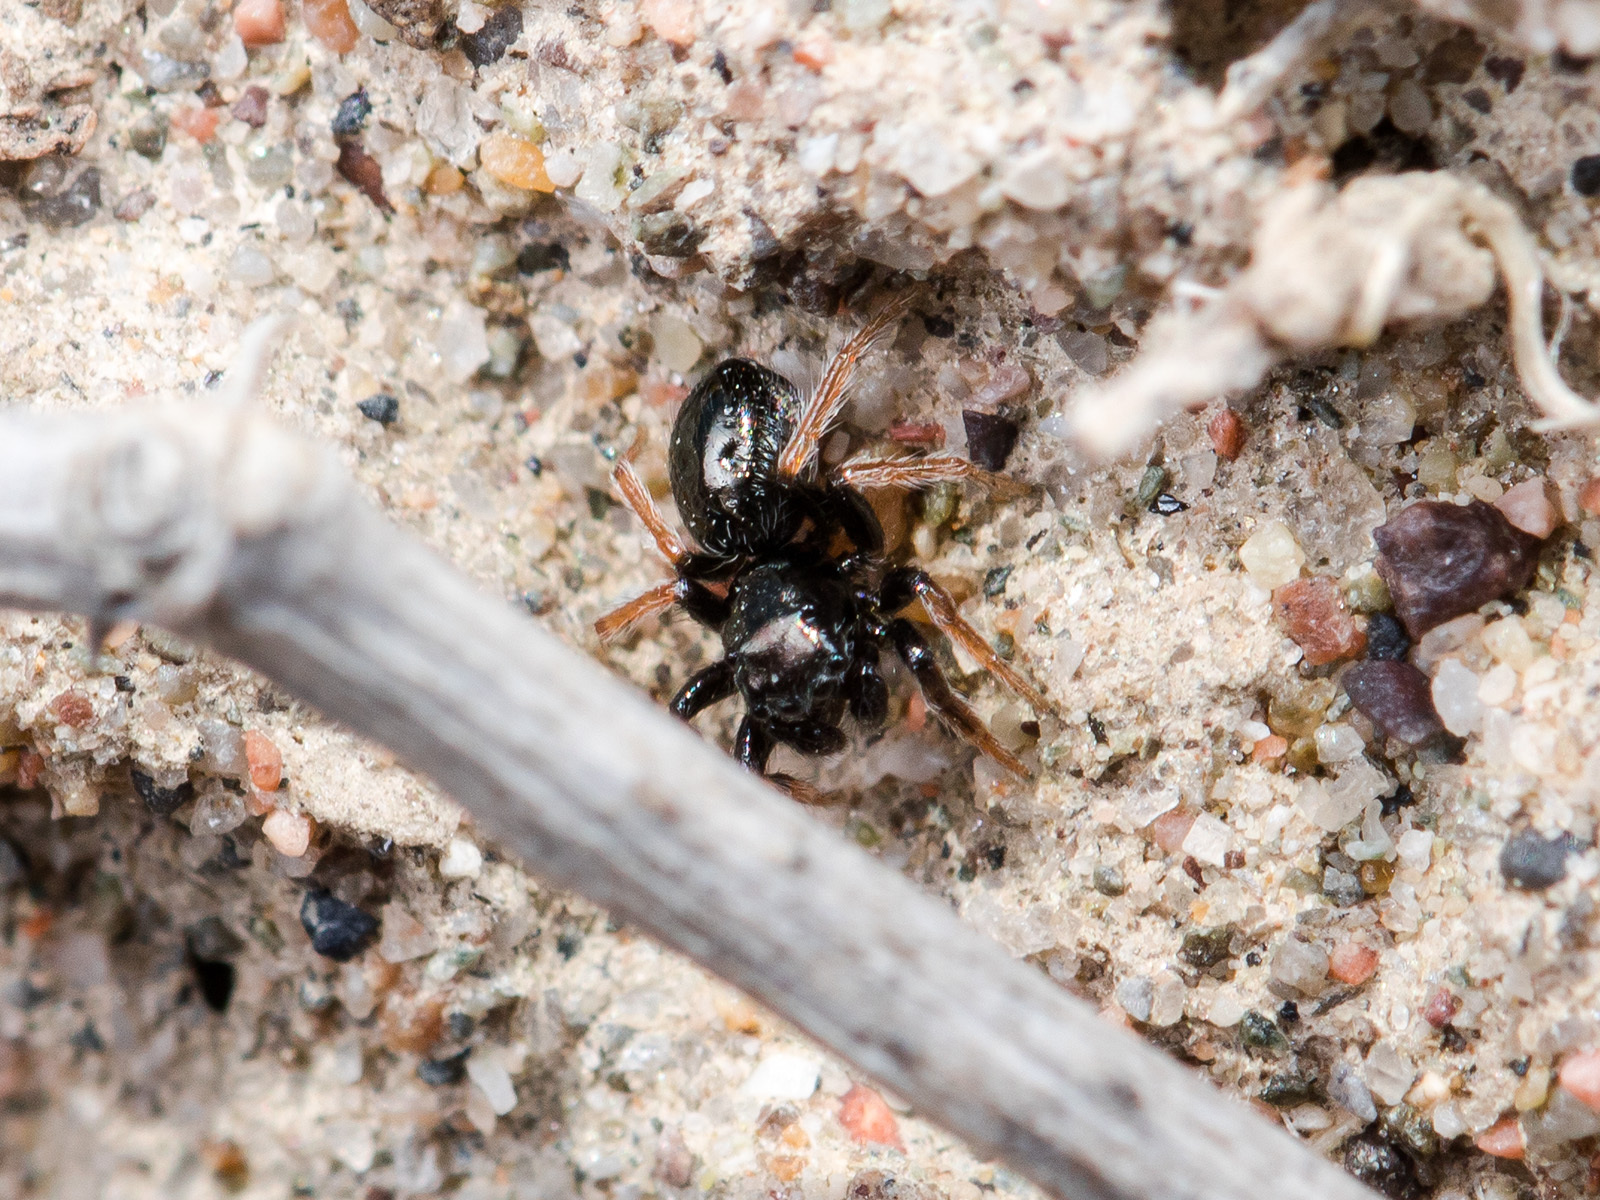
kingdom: Animalia
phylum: Arthropoda
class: Arachnida
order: Araneae
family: Salticidae
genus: Chalcoscirtus
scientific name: Chalcoscirtus karakurt
